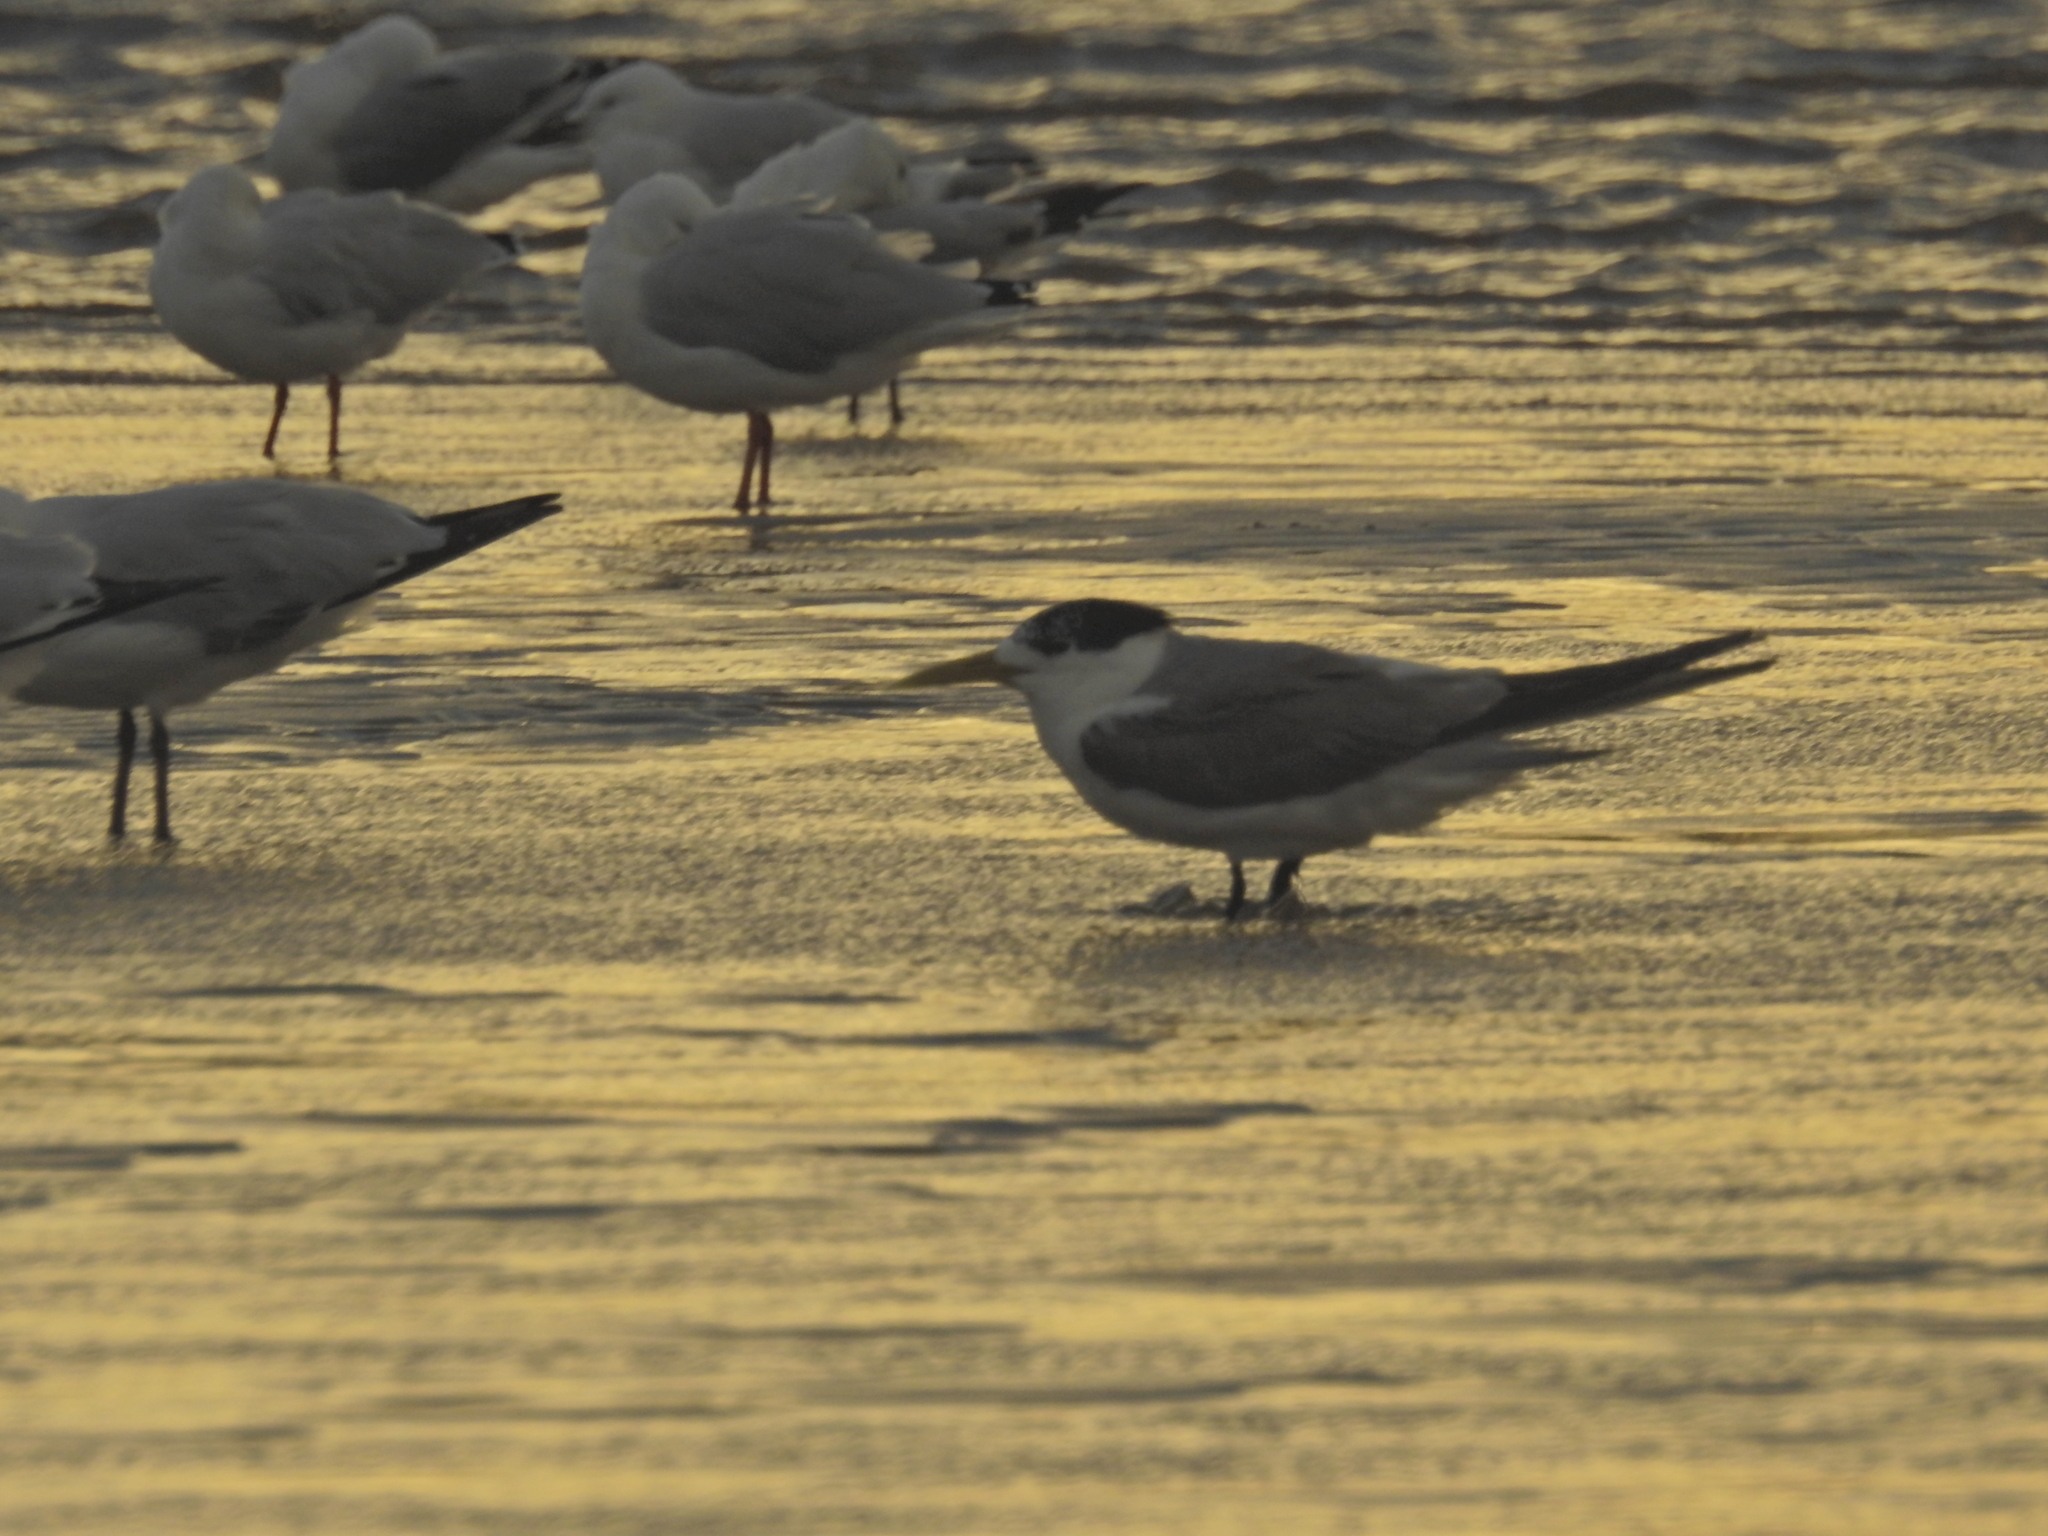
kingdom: Animalia
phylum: Chordata
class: Aves
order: Charadriiformes
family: Laridae
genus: Thalasseus
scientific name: Thalasseus bergii
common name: Greater crested tern
